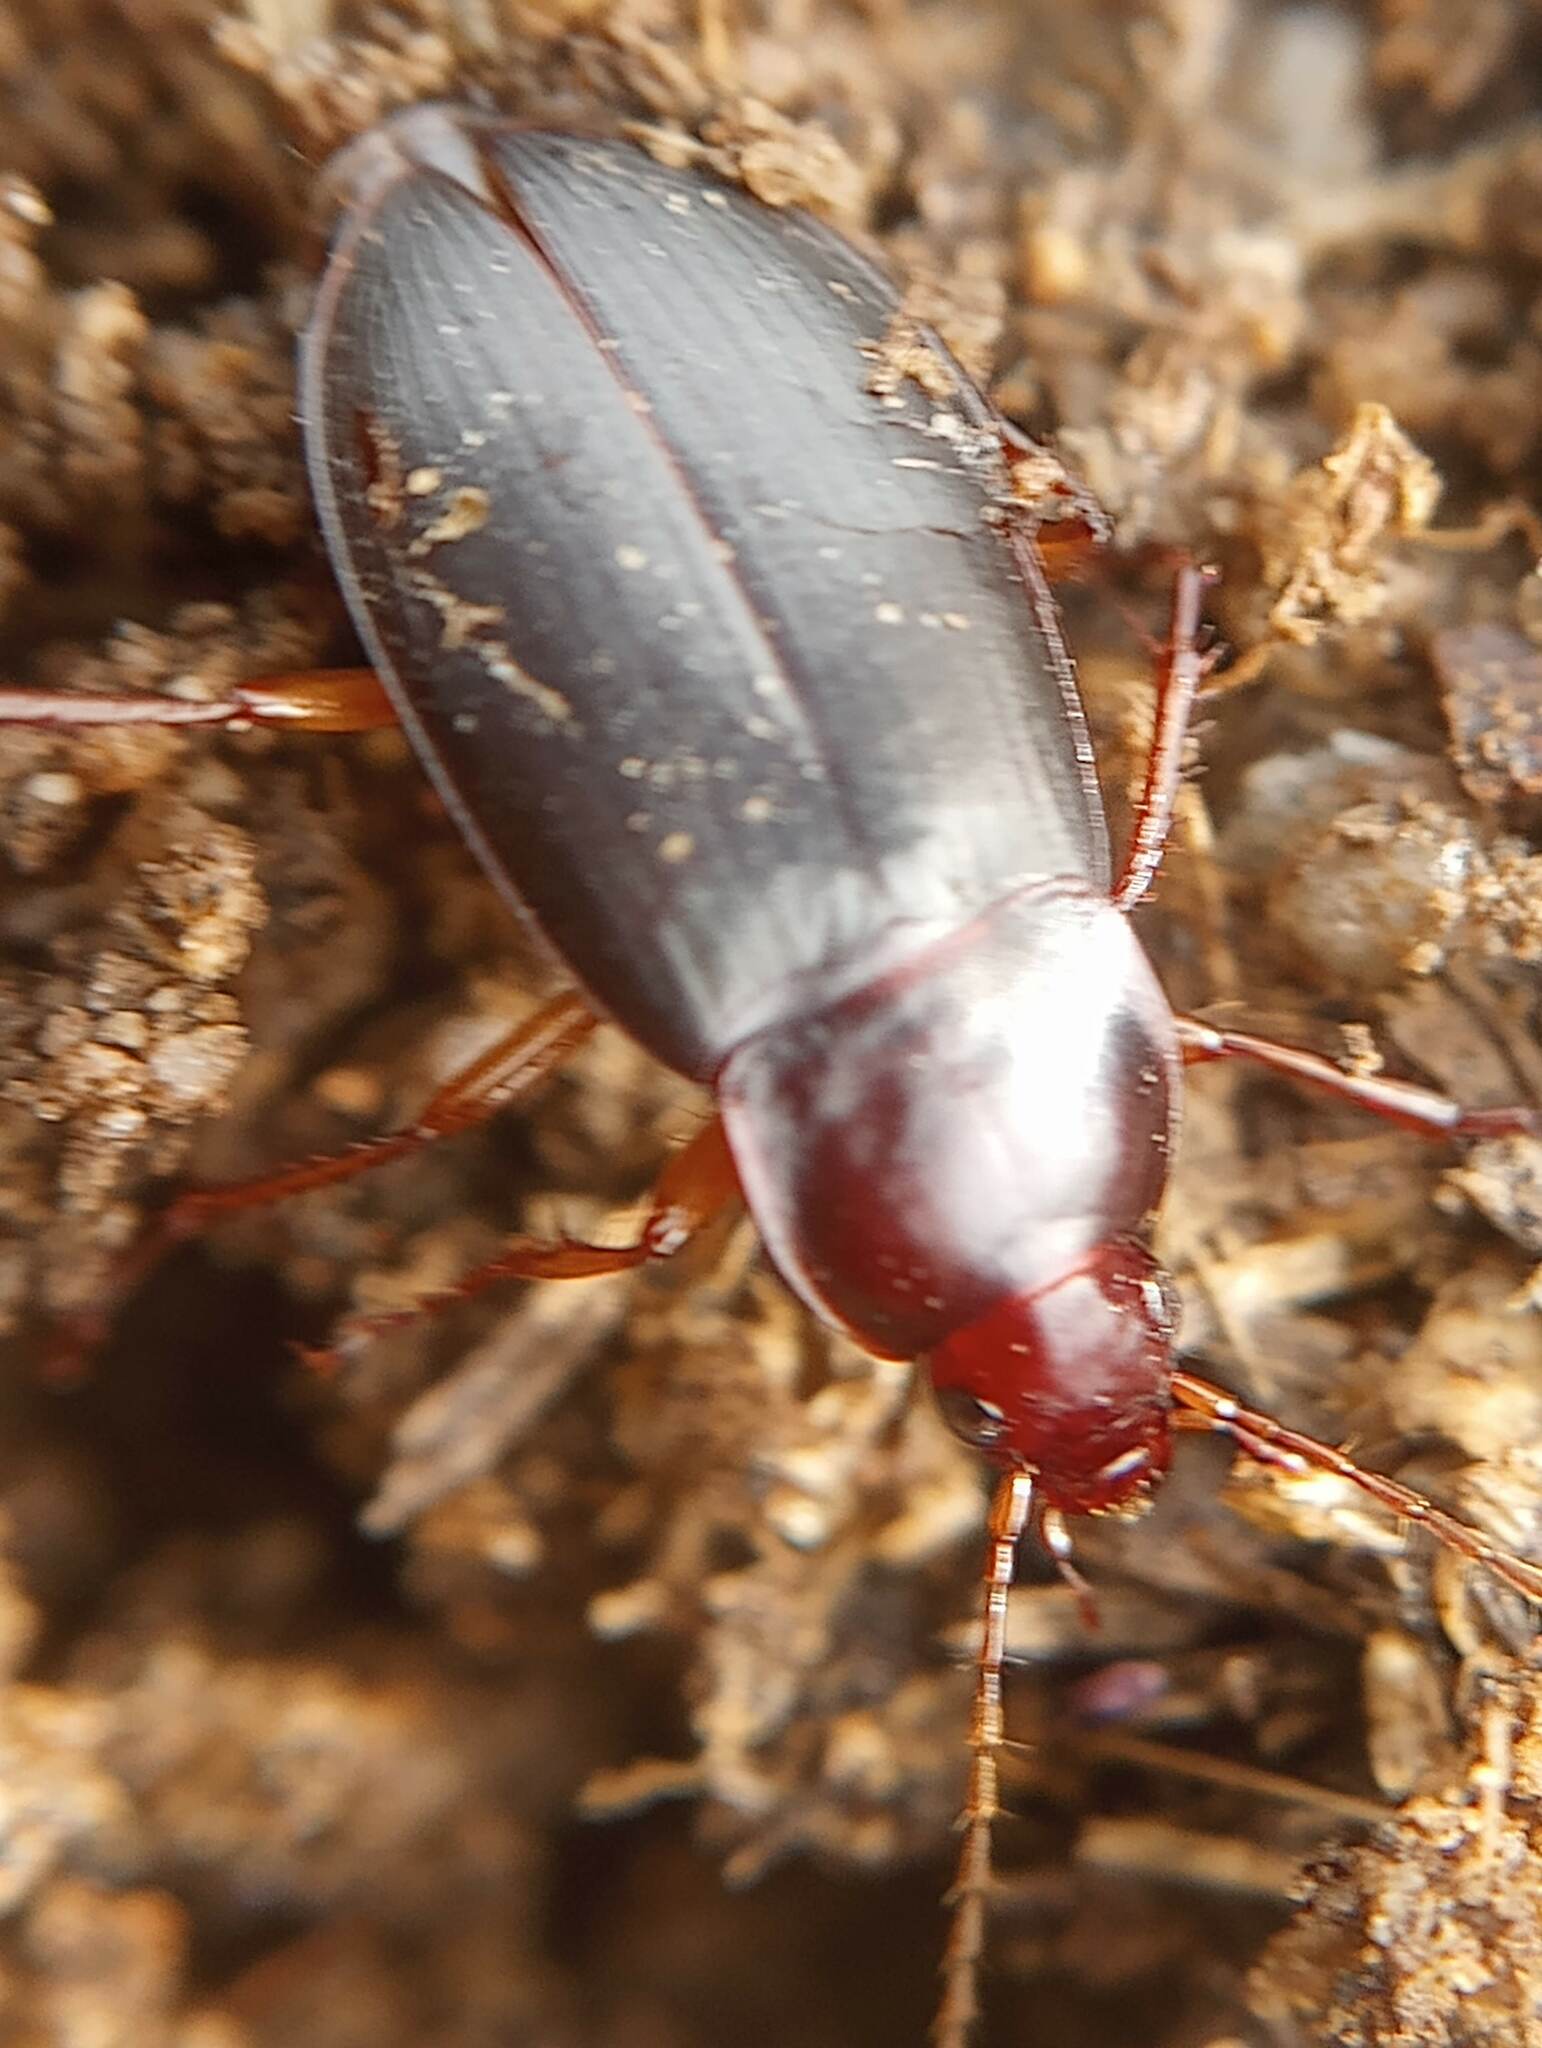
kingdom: Animalia
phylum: Arthropoda
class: Insecta
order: Coleoptera
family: Carabidae
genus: Calathus
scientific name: Calathus ruficollis
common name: Red-collared harp ground beetle
